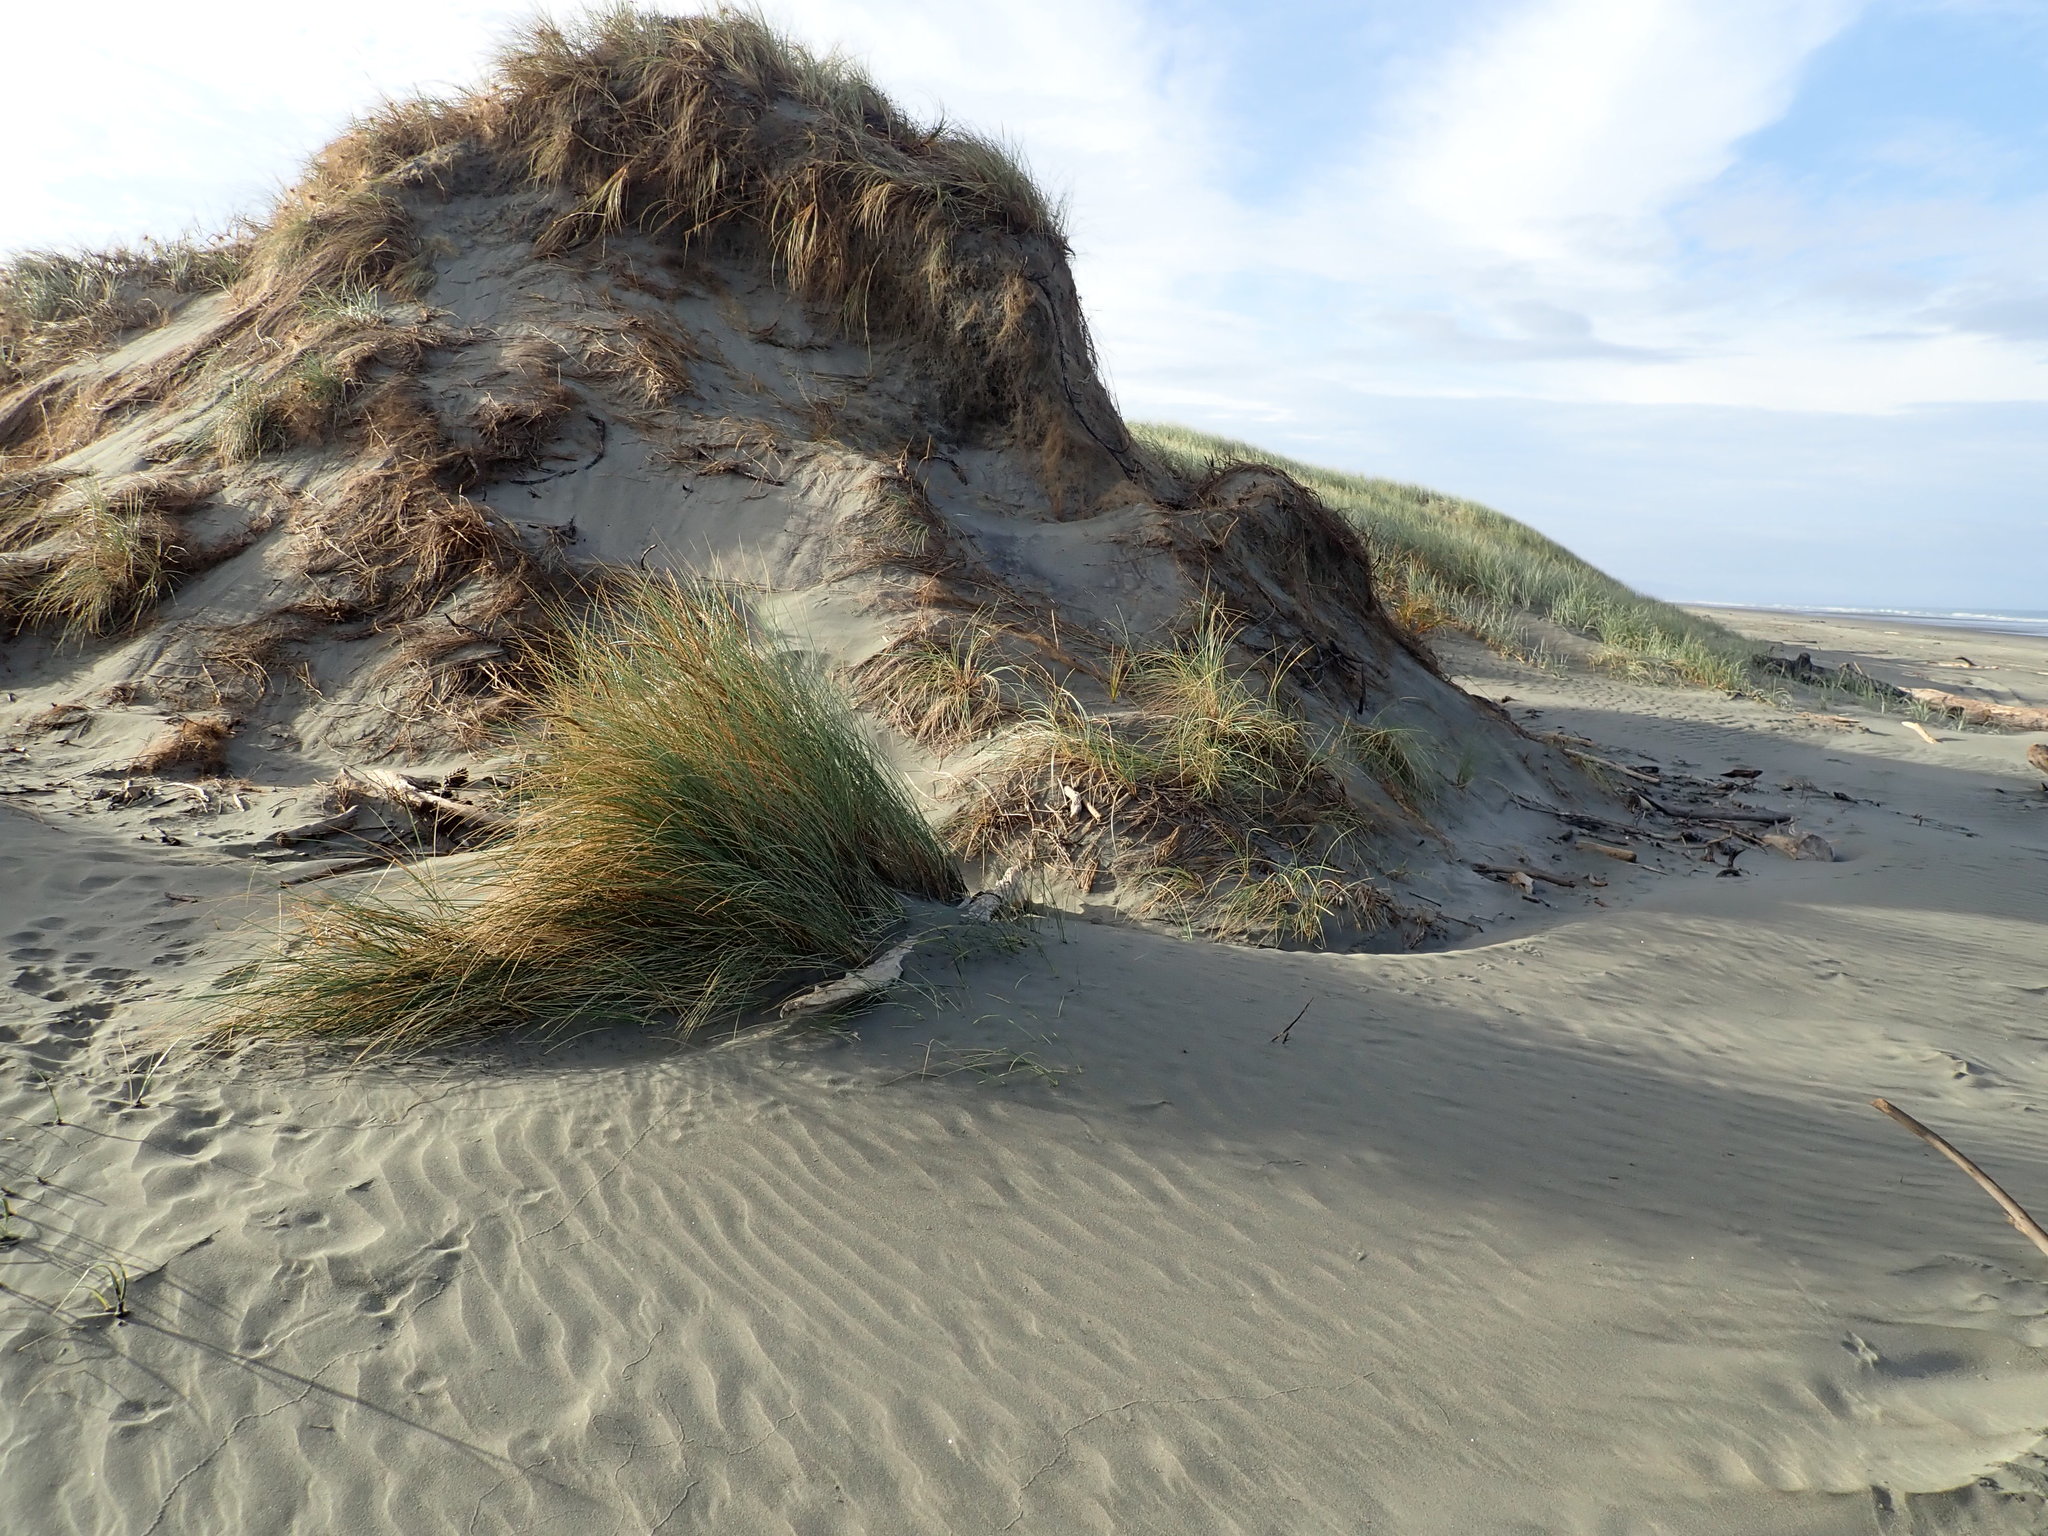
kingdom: Plantae
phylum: Tracheophyta
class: Liliopsida
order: Poales
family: Poaceae
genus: Calamagrostis
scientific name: Calamagrostis arenaria
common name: European beachgrass
